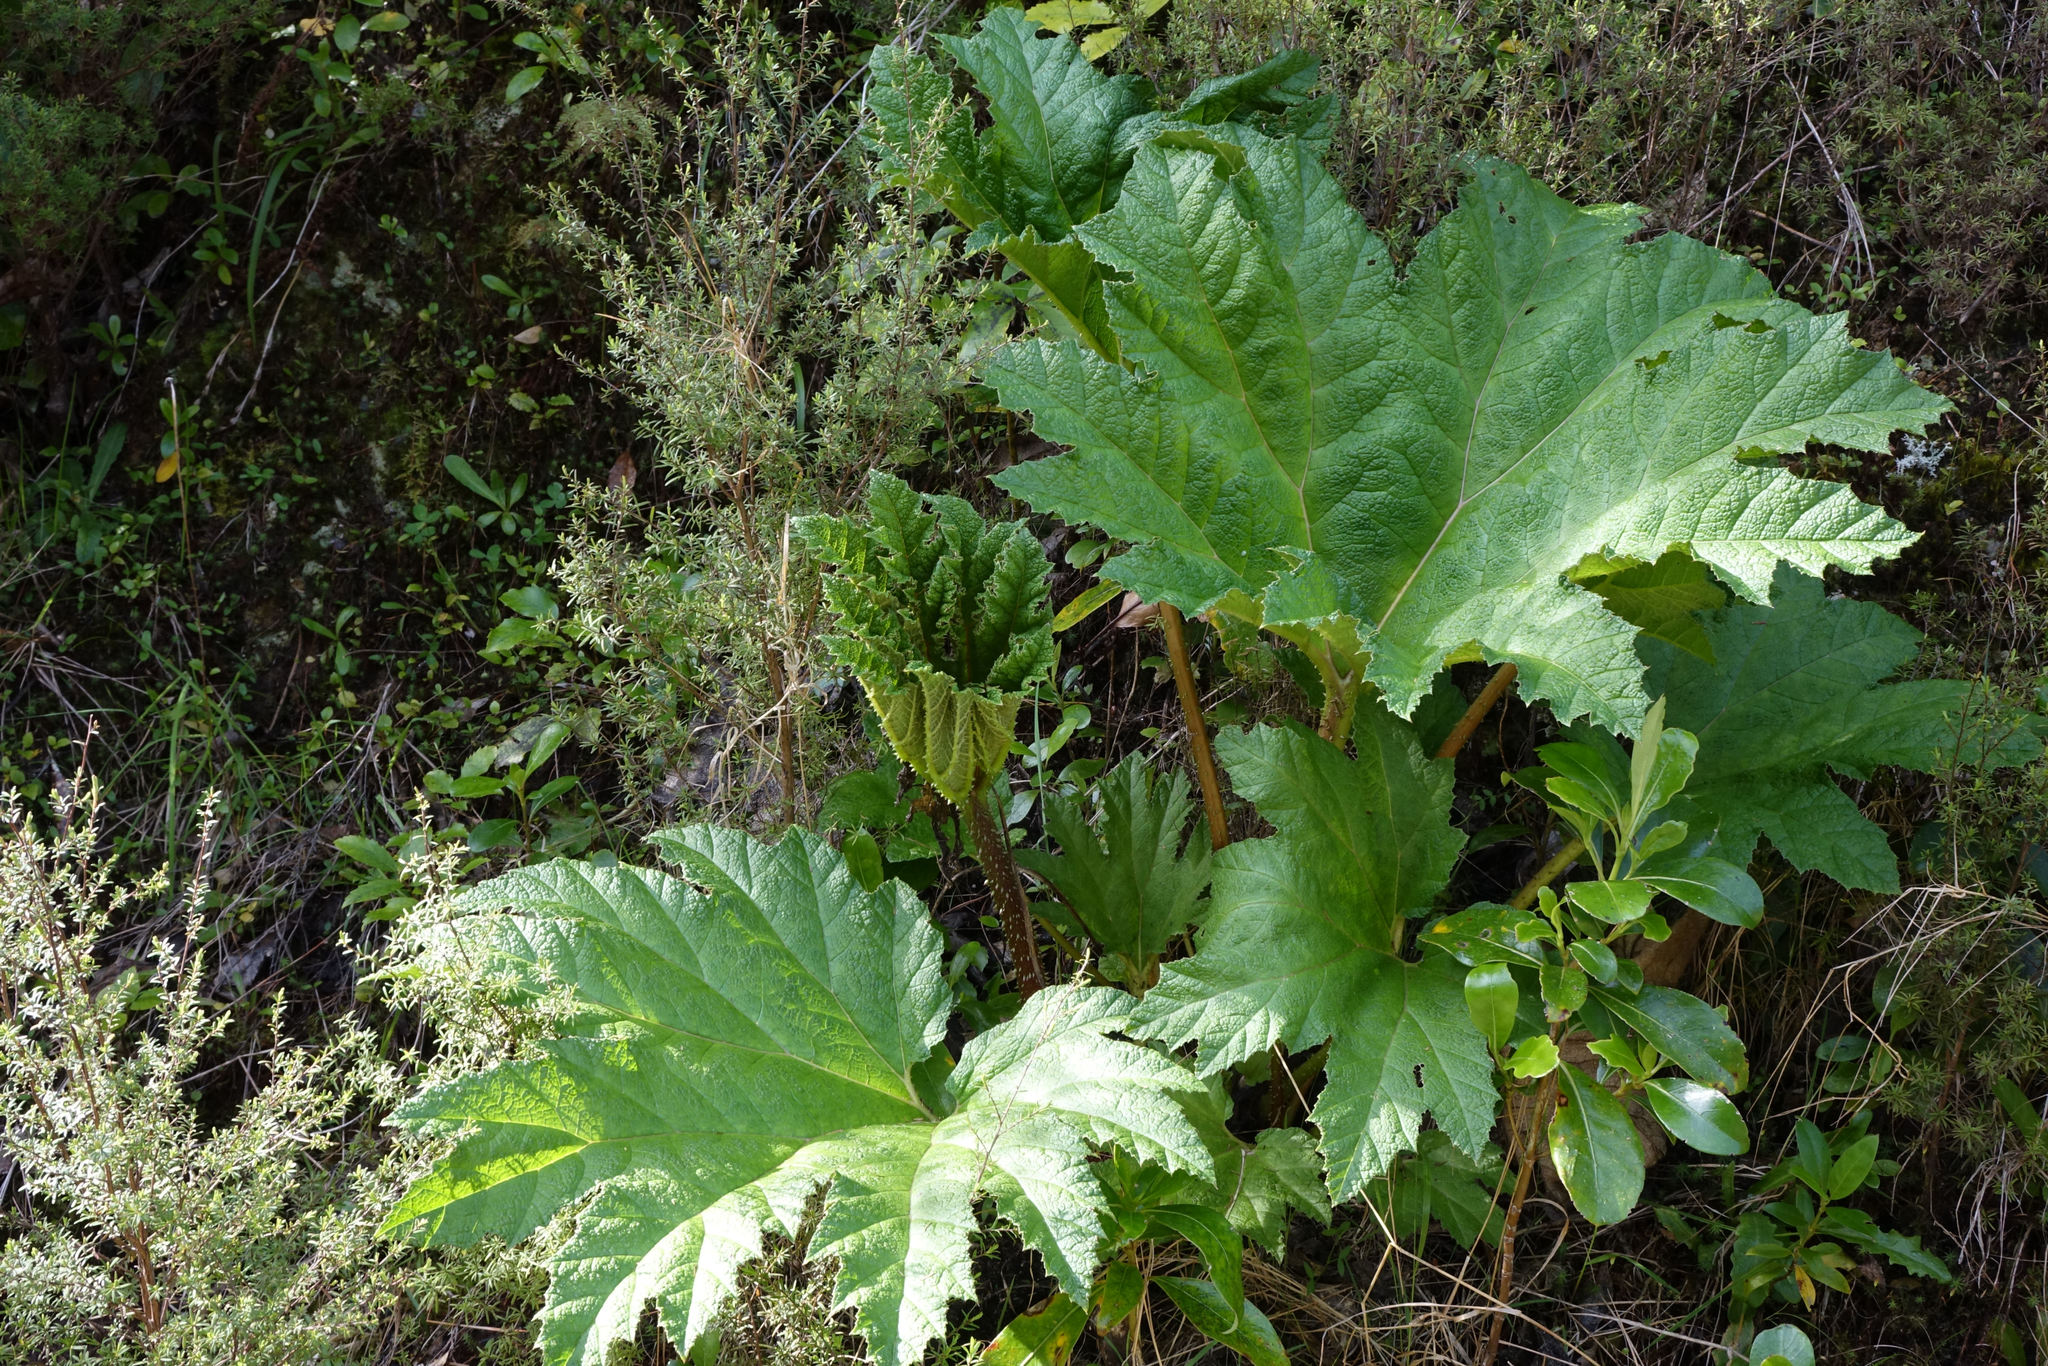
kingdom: Plantae
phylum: Tracheophyta
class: Magnoliopsida
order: Gunnerales
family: Gunneraceae
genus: Gunnera
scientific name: Gunnera tinctoria
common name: Giant-rhubarb
